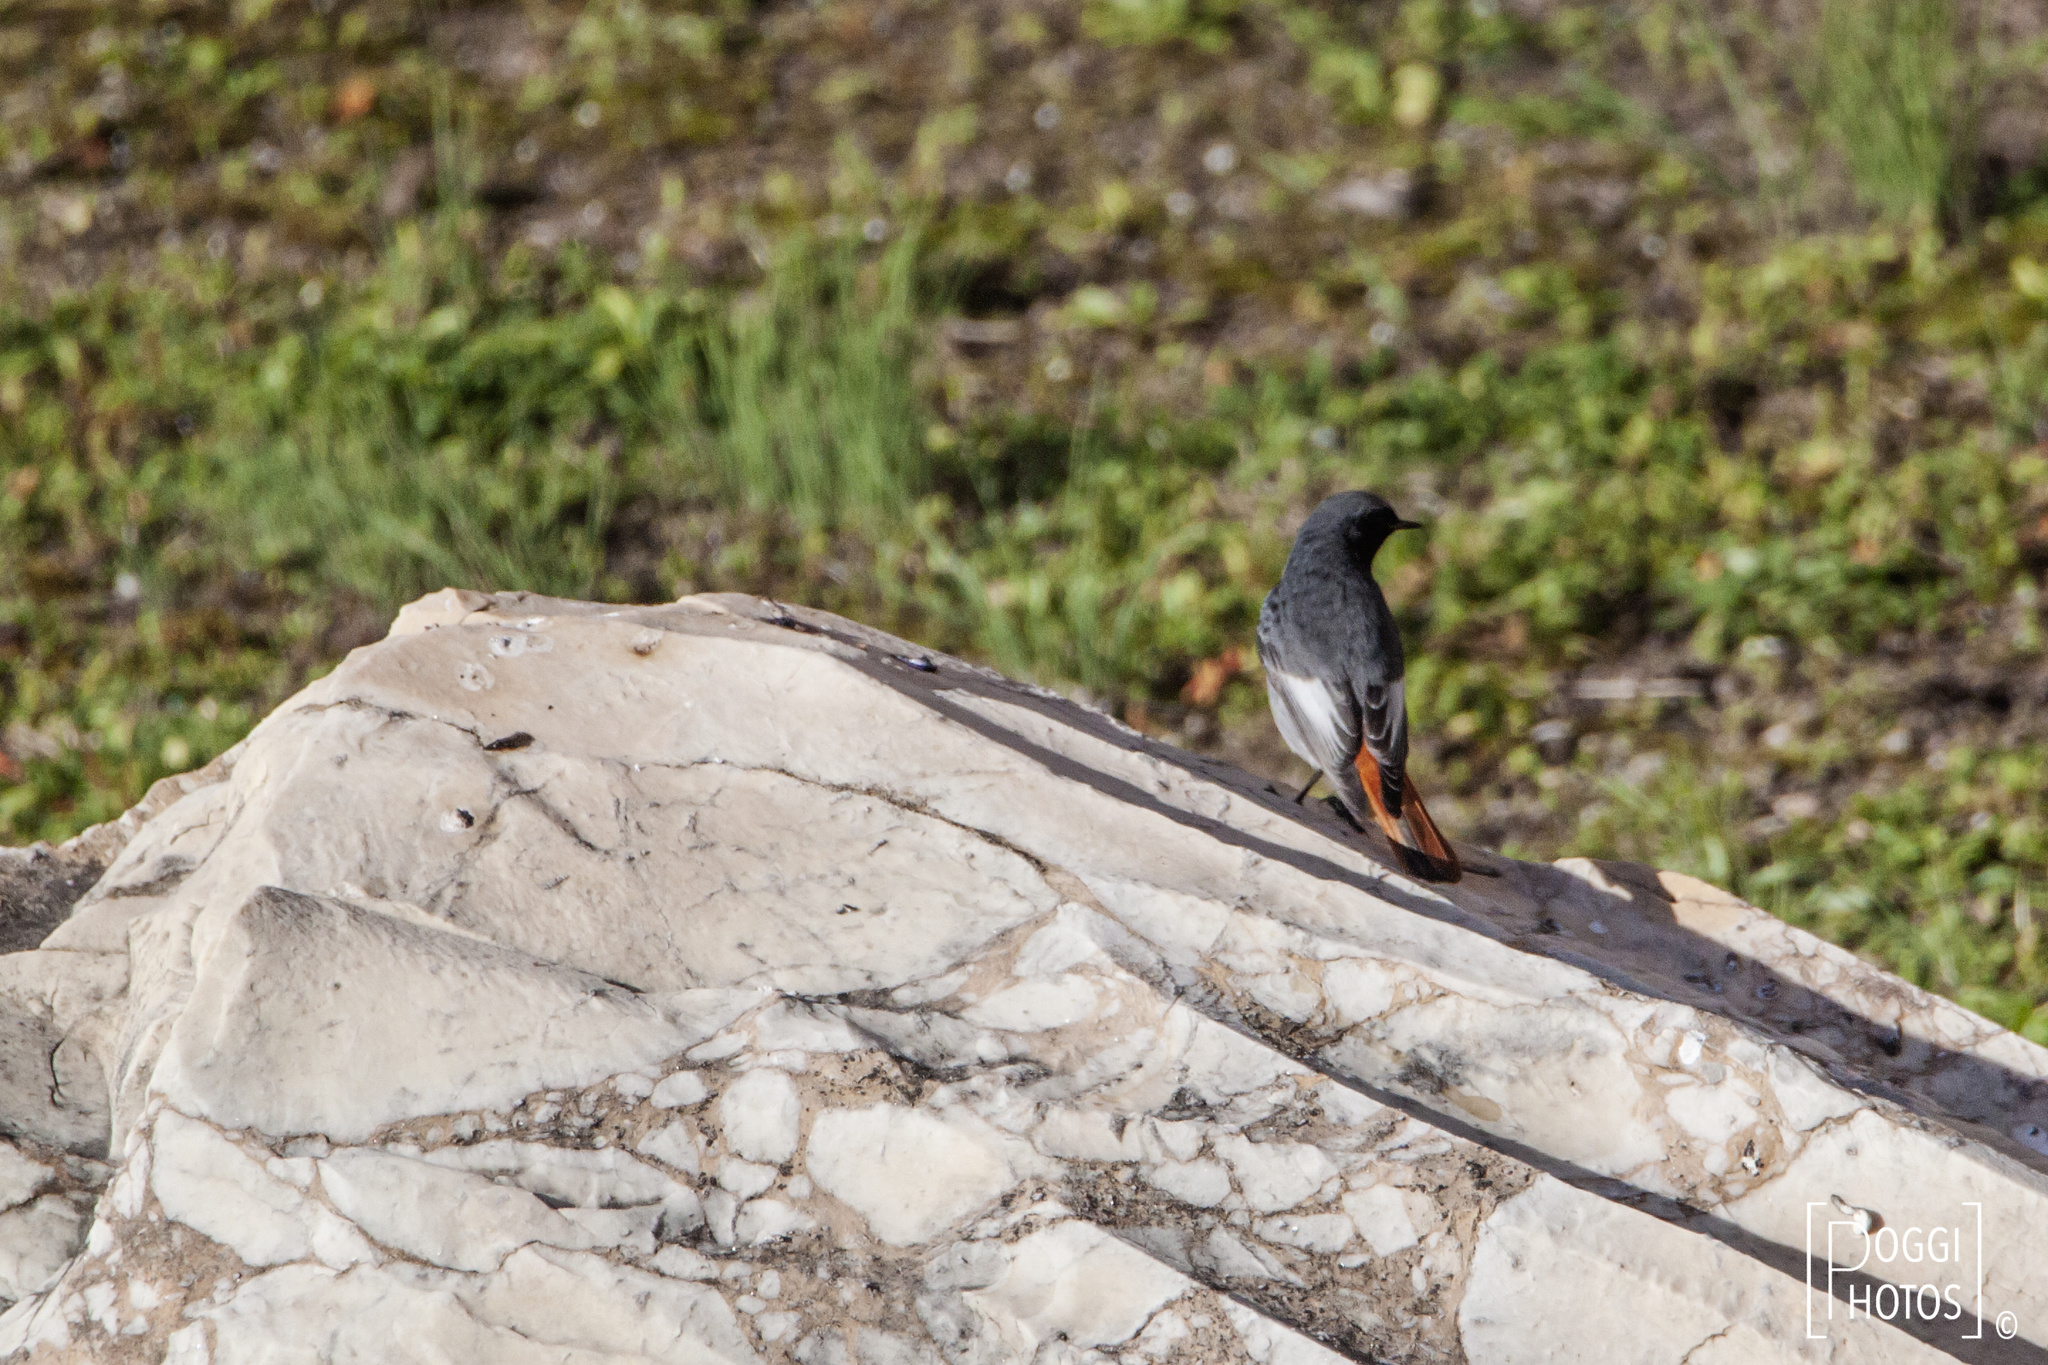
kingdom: Animalia
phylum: Chordata
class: Aves
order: Passeriformes
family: Muscicapidae
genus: Phoenicurus
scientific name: Phoenicurus ochruros
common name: Black redstart
